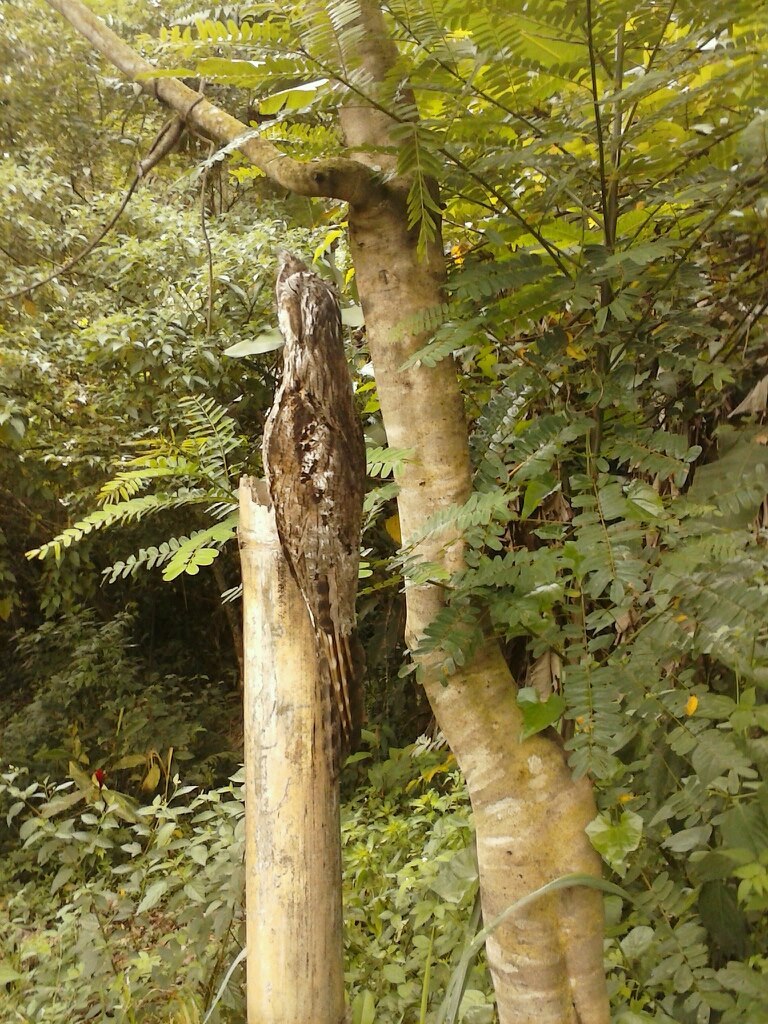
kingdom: Animalia
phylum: Chordata
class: Aves
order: Nyctibiiformes
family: Nyctibiidae
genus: Nyctibius
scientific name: Nyctibius griseus
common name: Common potoo
